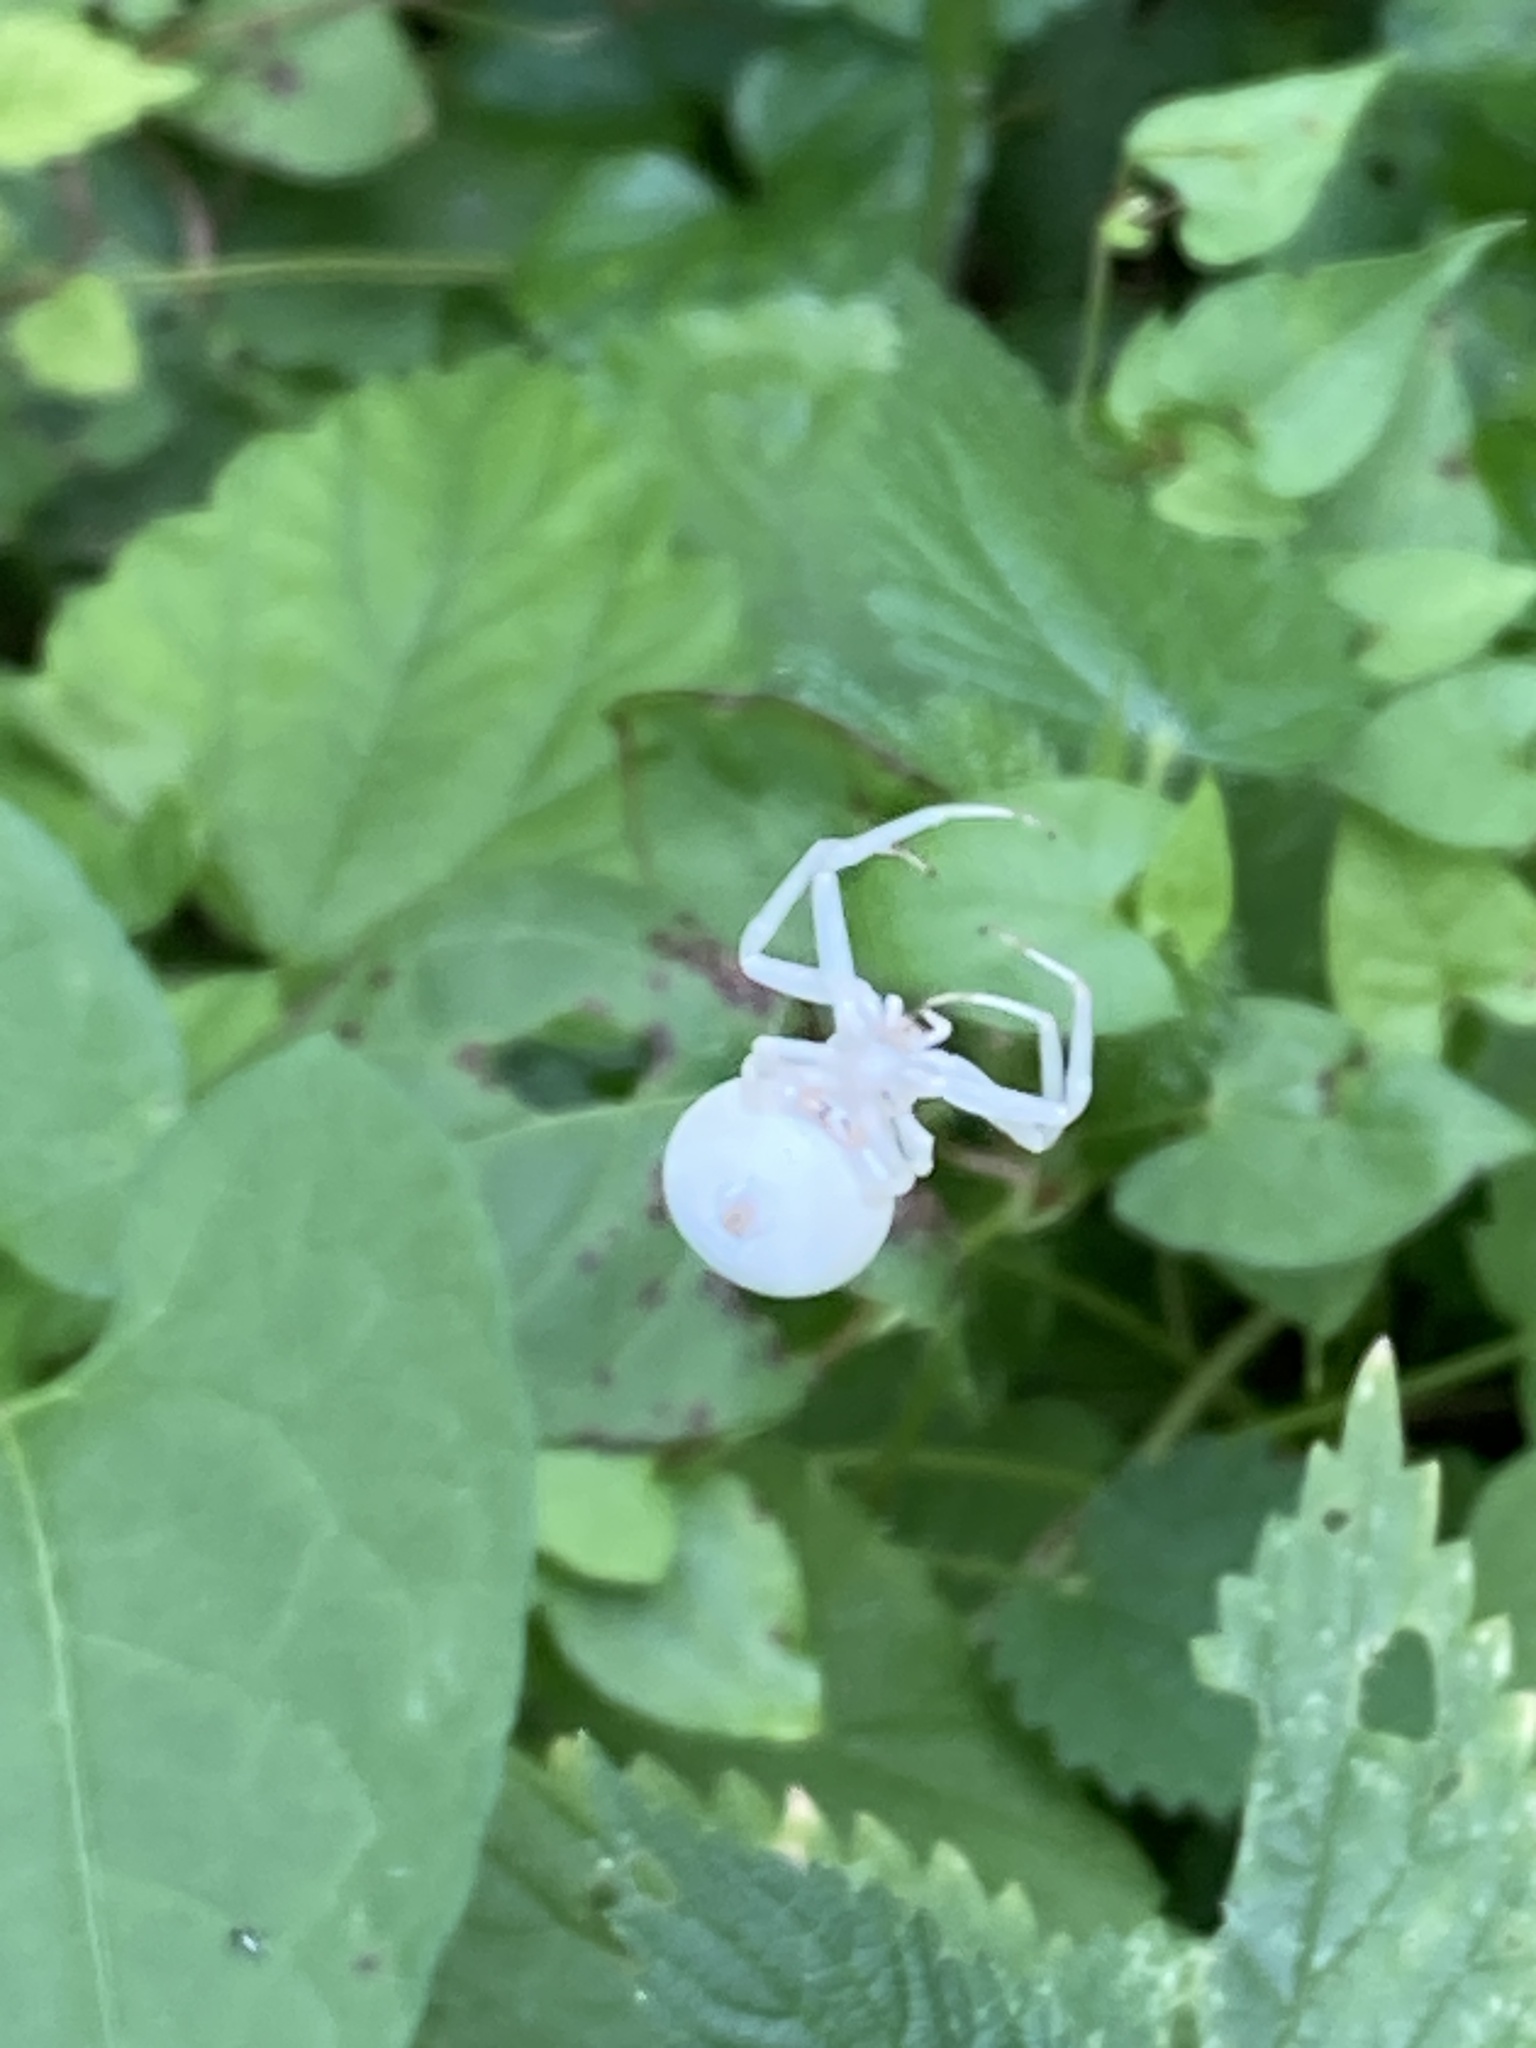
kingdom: Animalia
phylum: Arthropoda
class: Arachnida
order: Araneae
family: Thomisidae
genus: Misumena
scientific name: Misumena vatia
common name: Goldenrod crab spider
